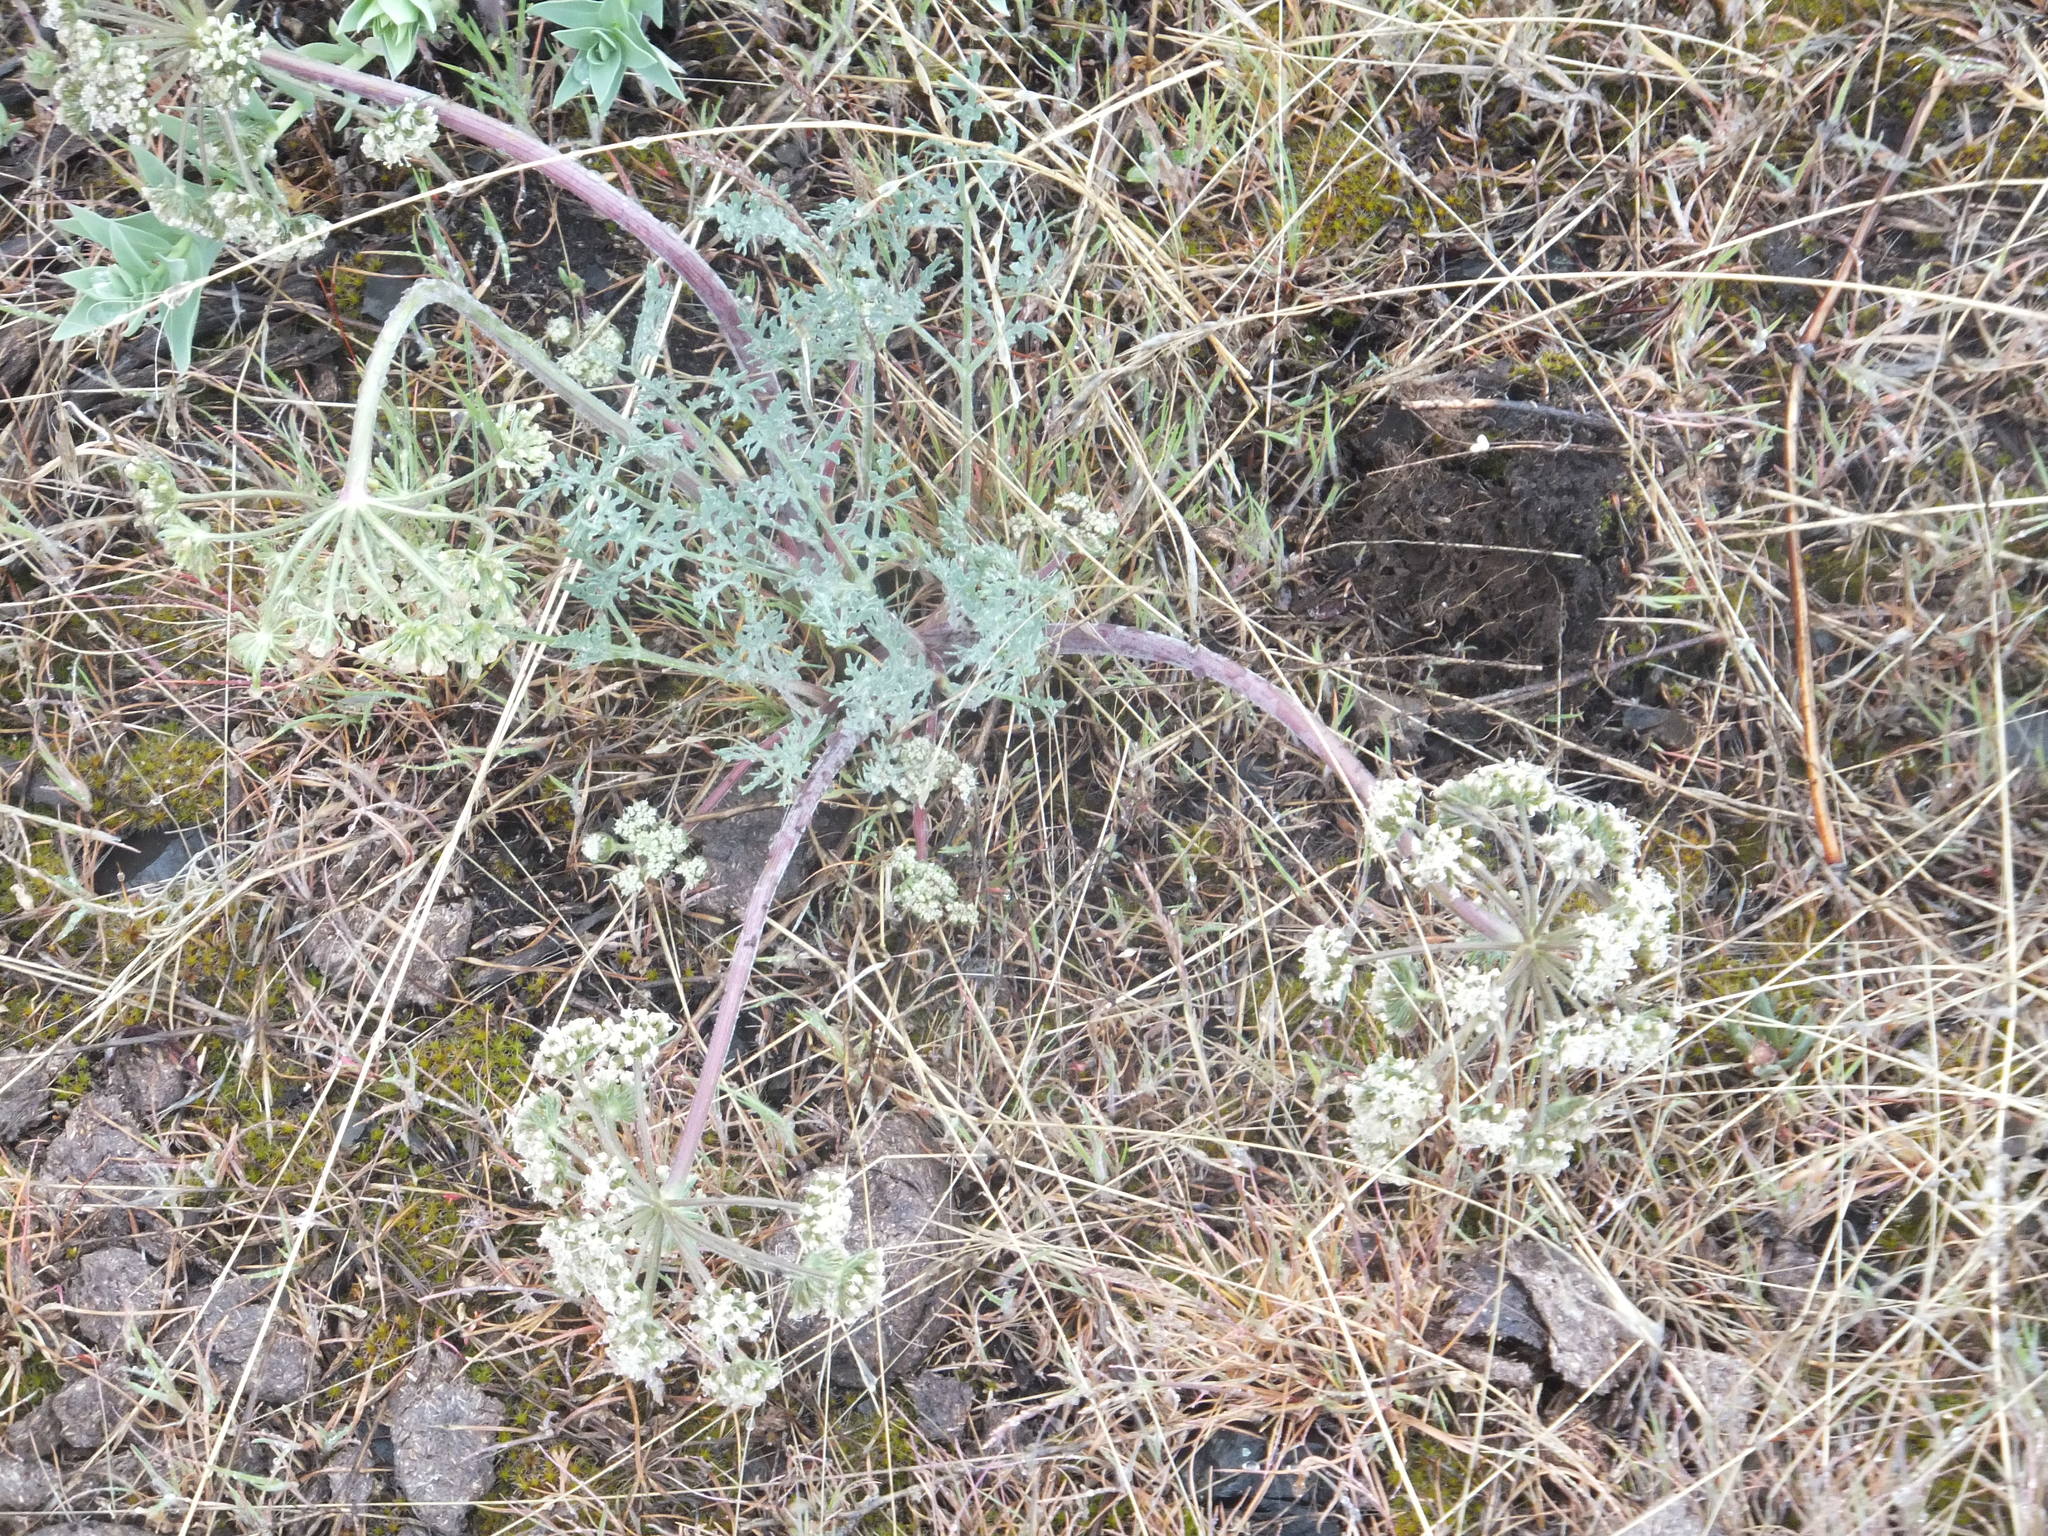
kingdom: Plantae
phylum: Tracheophyta
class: Magnoliopsida
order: Apiales
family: Apiaceae
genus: Lomatium
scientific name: Lomatium macrocarpum
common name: Big-seed biscuitroot
